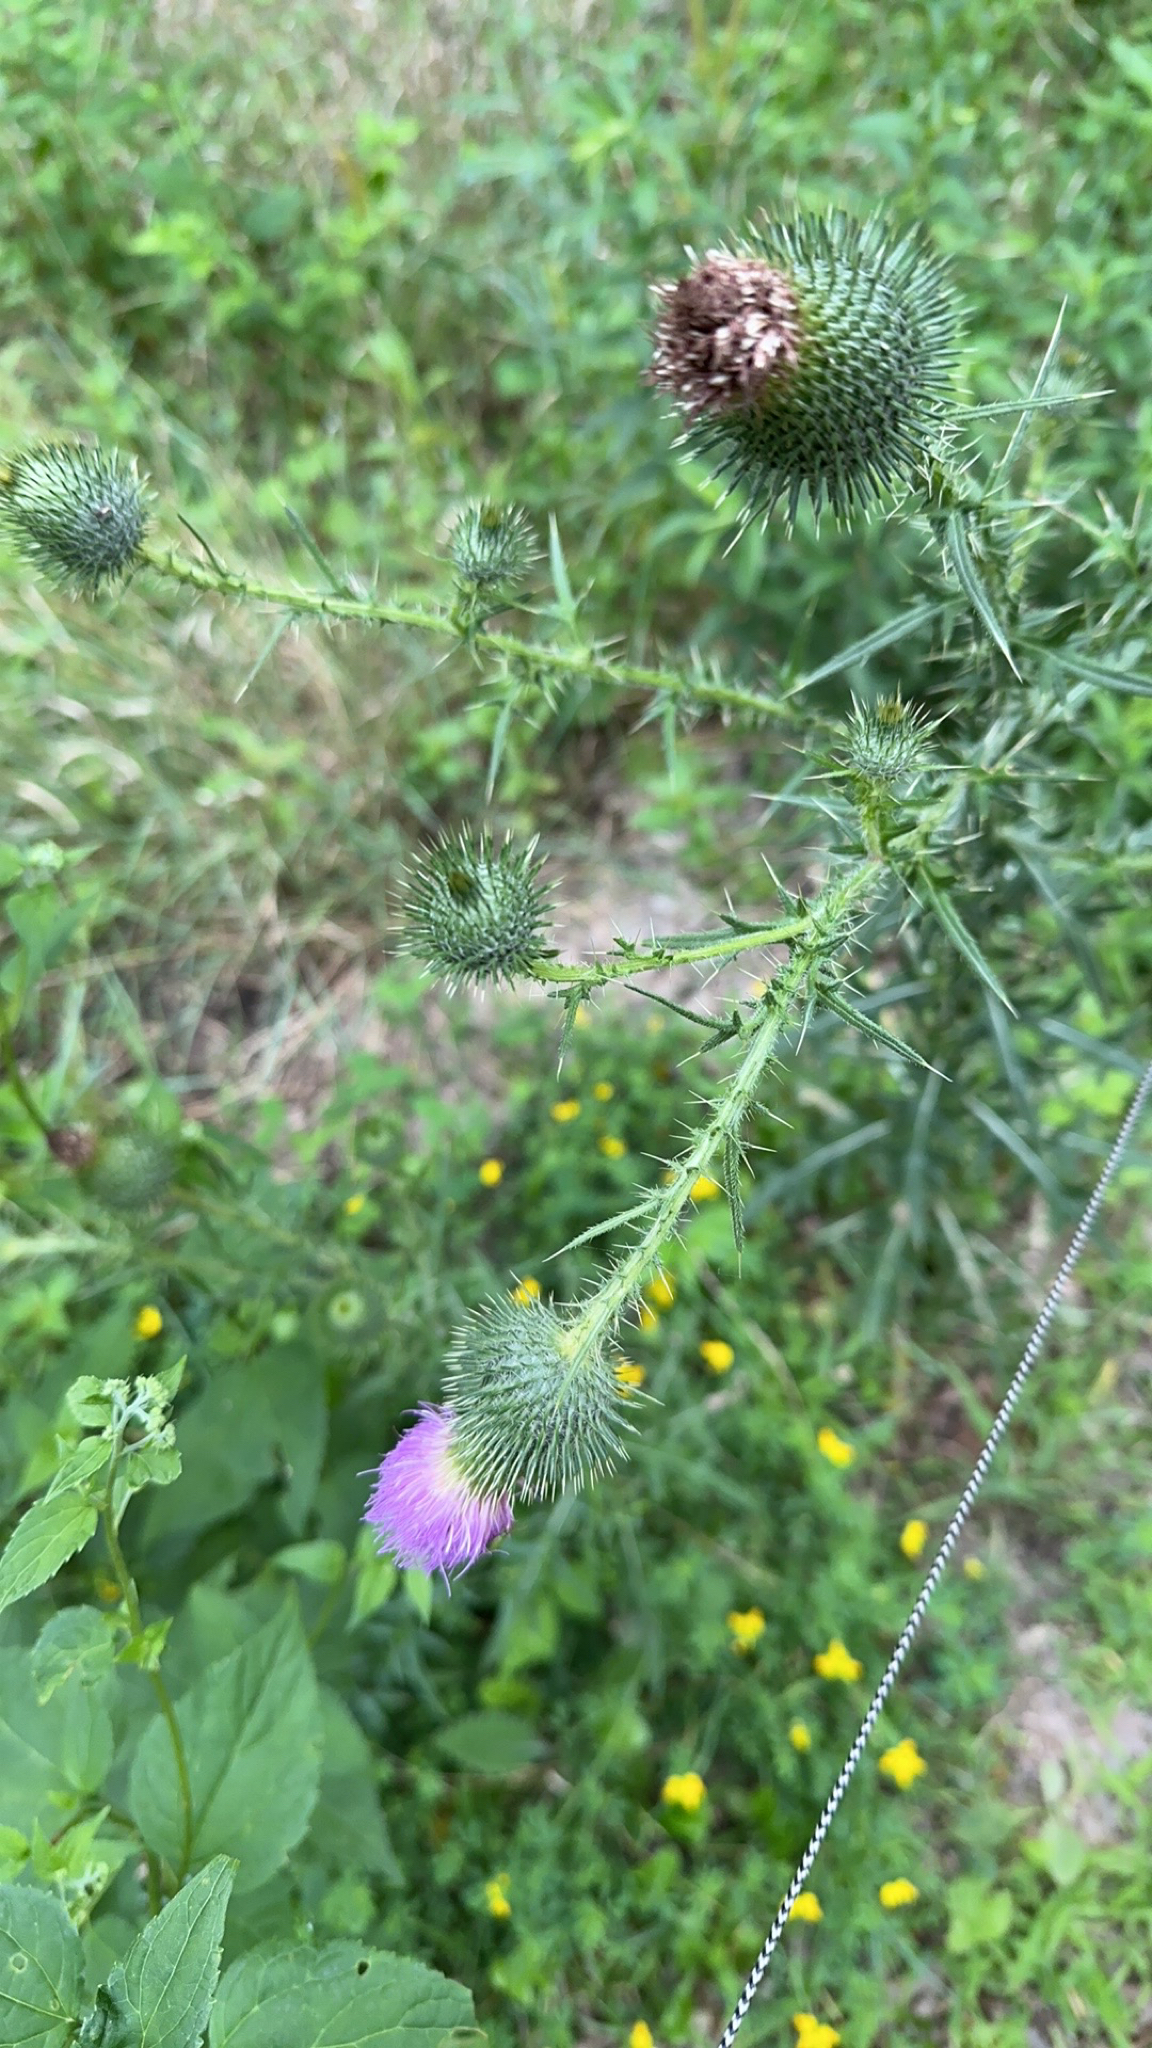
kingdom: Plantae
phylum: Tracheophyta
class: Magnoliopsida
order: Asterales
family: Asteraceae
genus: Cirsium
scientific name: Cirsium vulgare
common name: Bull thistle
